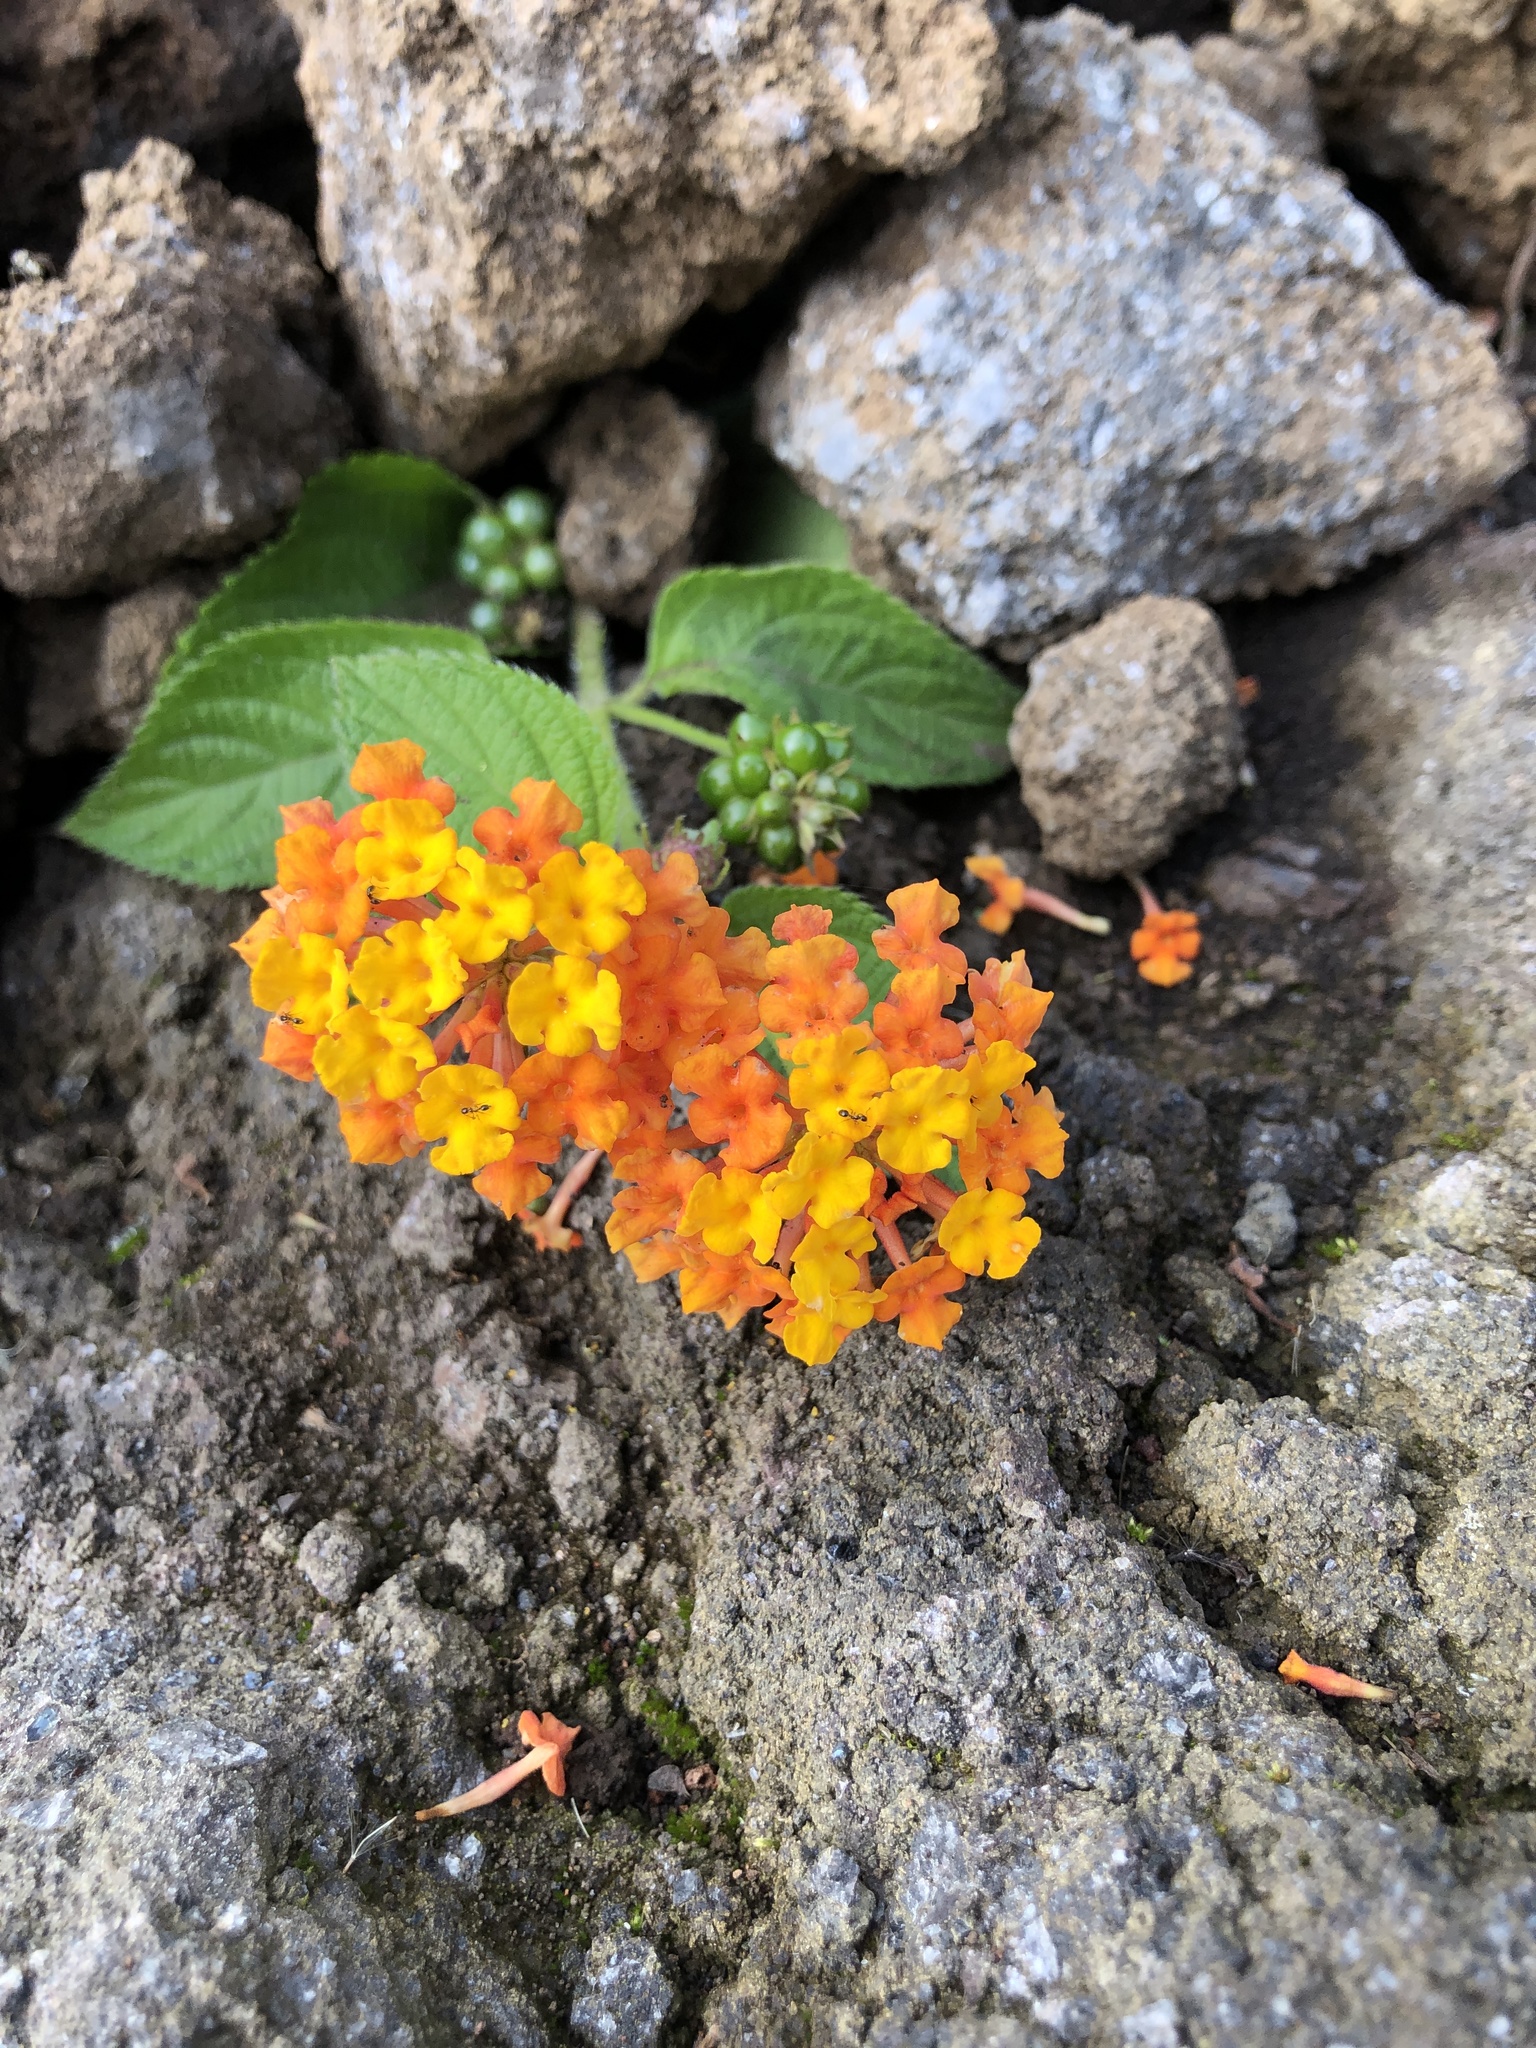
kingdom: Plantae
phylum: Tracheophyta
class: Magnoliopsida
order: Lamiales
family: Verbenaceae
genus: Lantana
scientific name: Lantana camara
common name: Lantana
